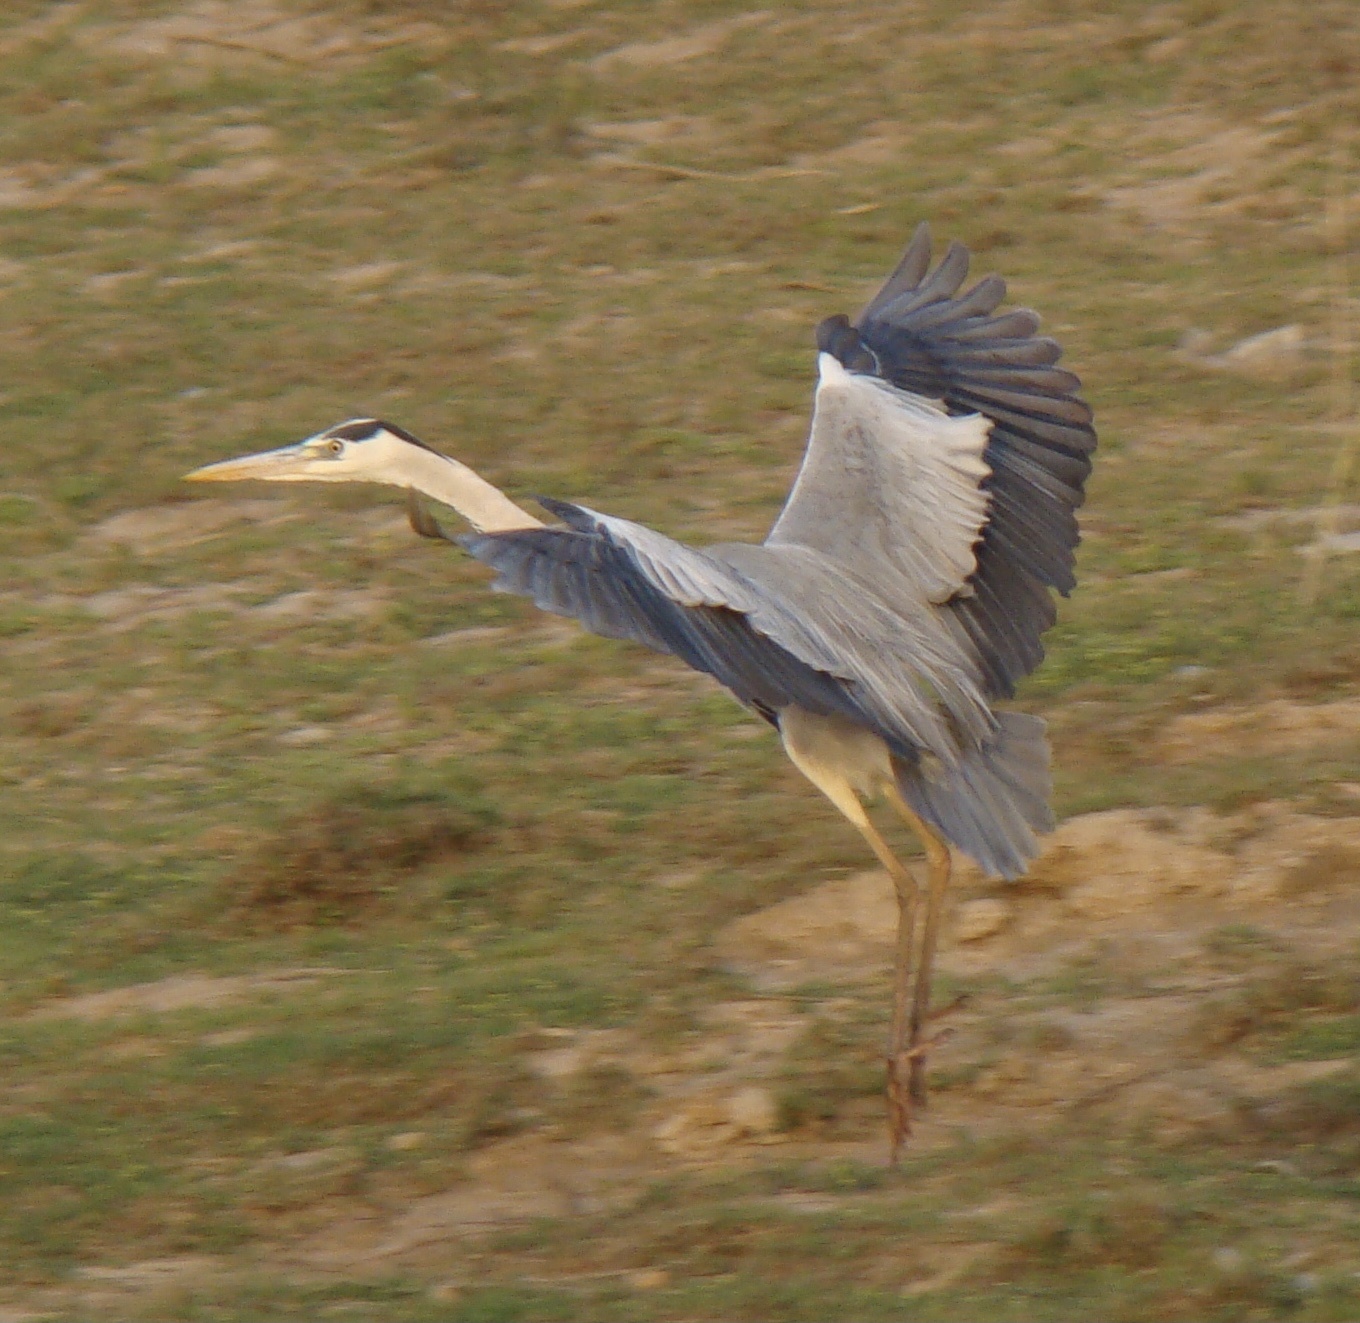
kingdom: Animalia
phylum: Chordata
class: Aves
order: Pelecaniformes
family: Ardeidae
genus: Ardea
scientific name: Ardea cinerea
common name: Grey heron
